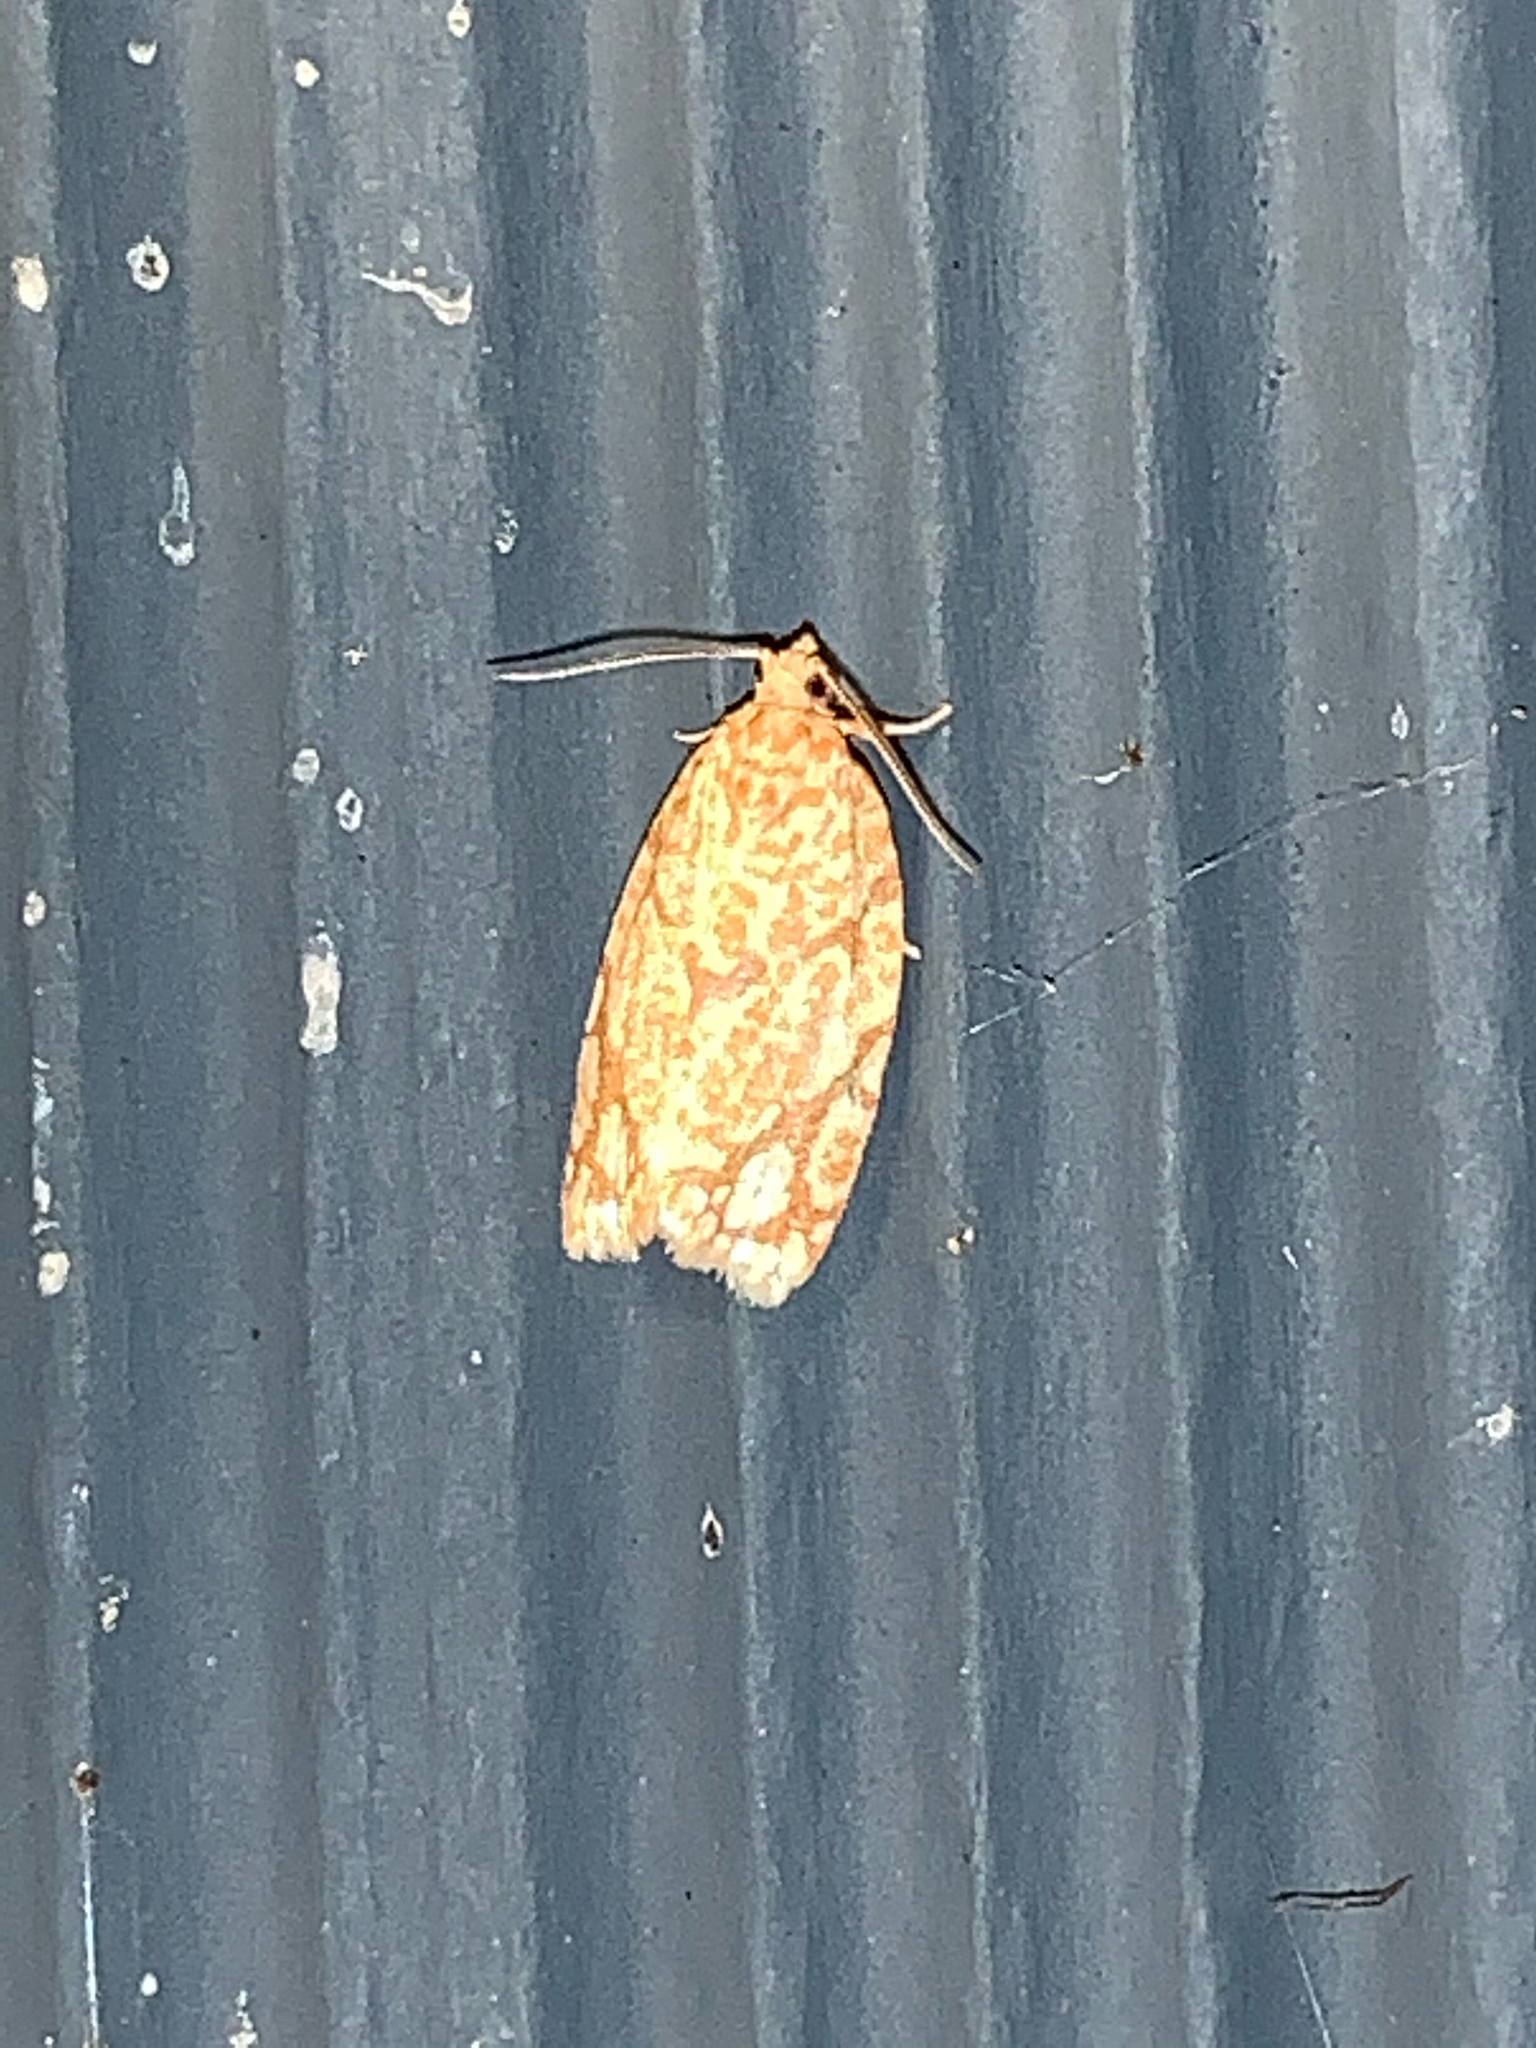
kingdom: Animalia
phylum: Arthropoda
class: Insecta
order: Lepidoptera
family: Tortricidae
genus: Argyrotaenia
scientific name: Argyrotaenia quercifoliana
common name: Yellow-winged oak leafroller moth
